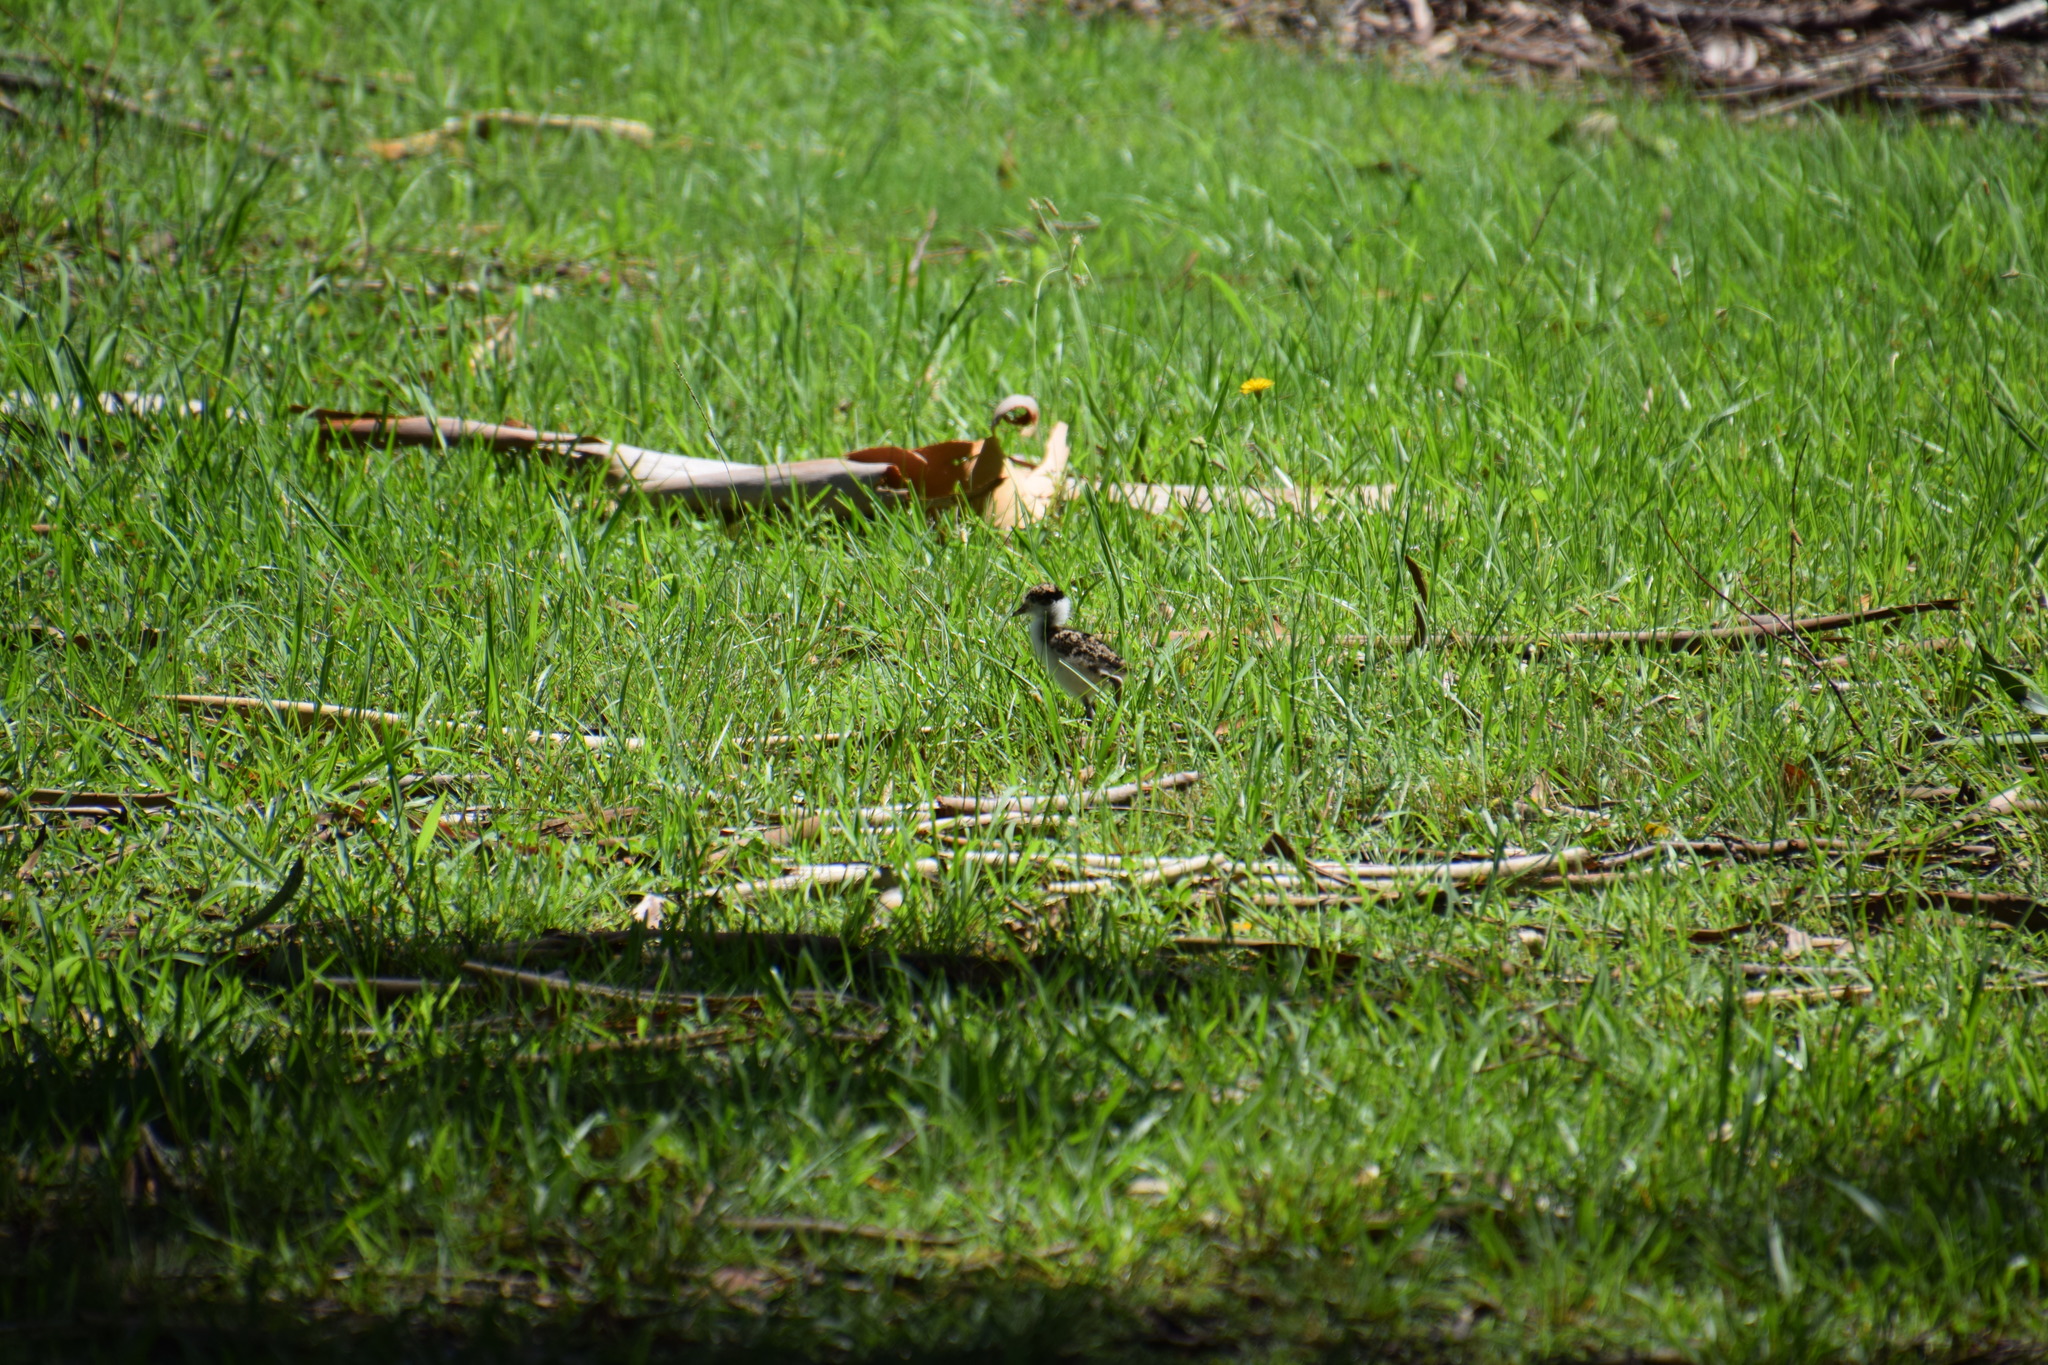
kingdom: Animalia
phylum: Chordata
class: Aves
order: Charadriiformes
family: Charadriidae
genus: Vanellus
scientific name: Vanellus miles
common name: Masked lapwing
